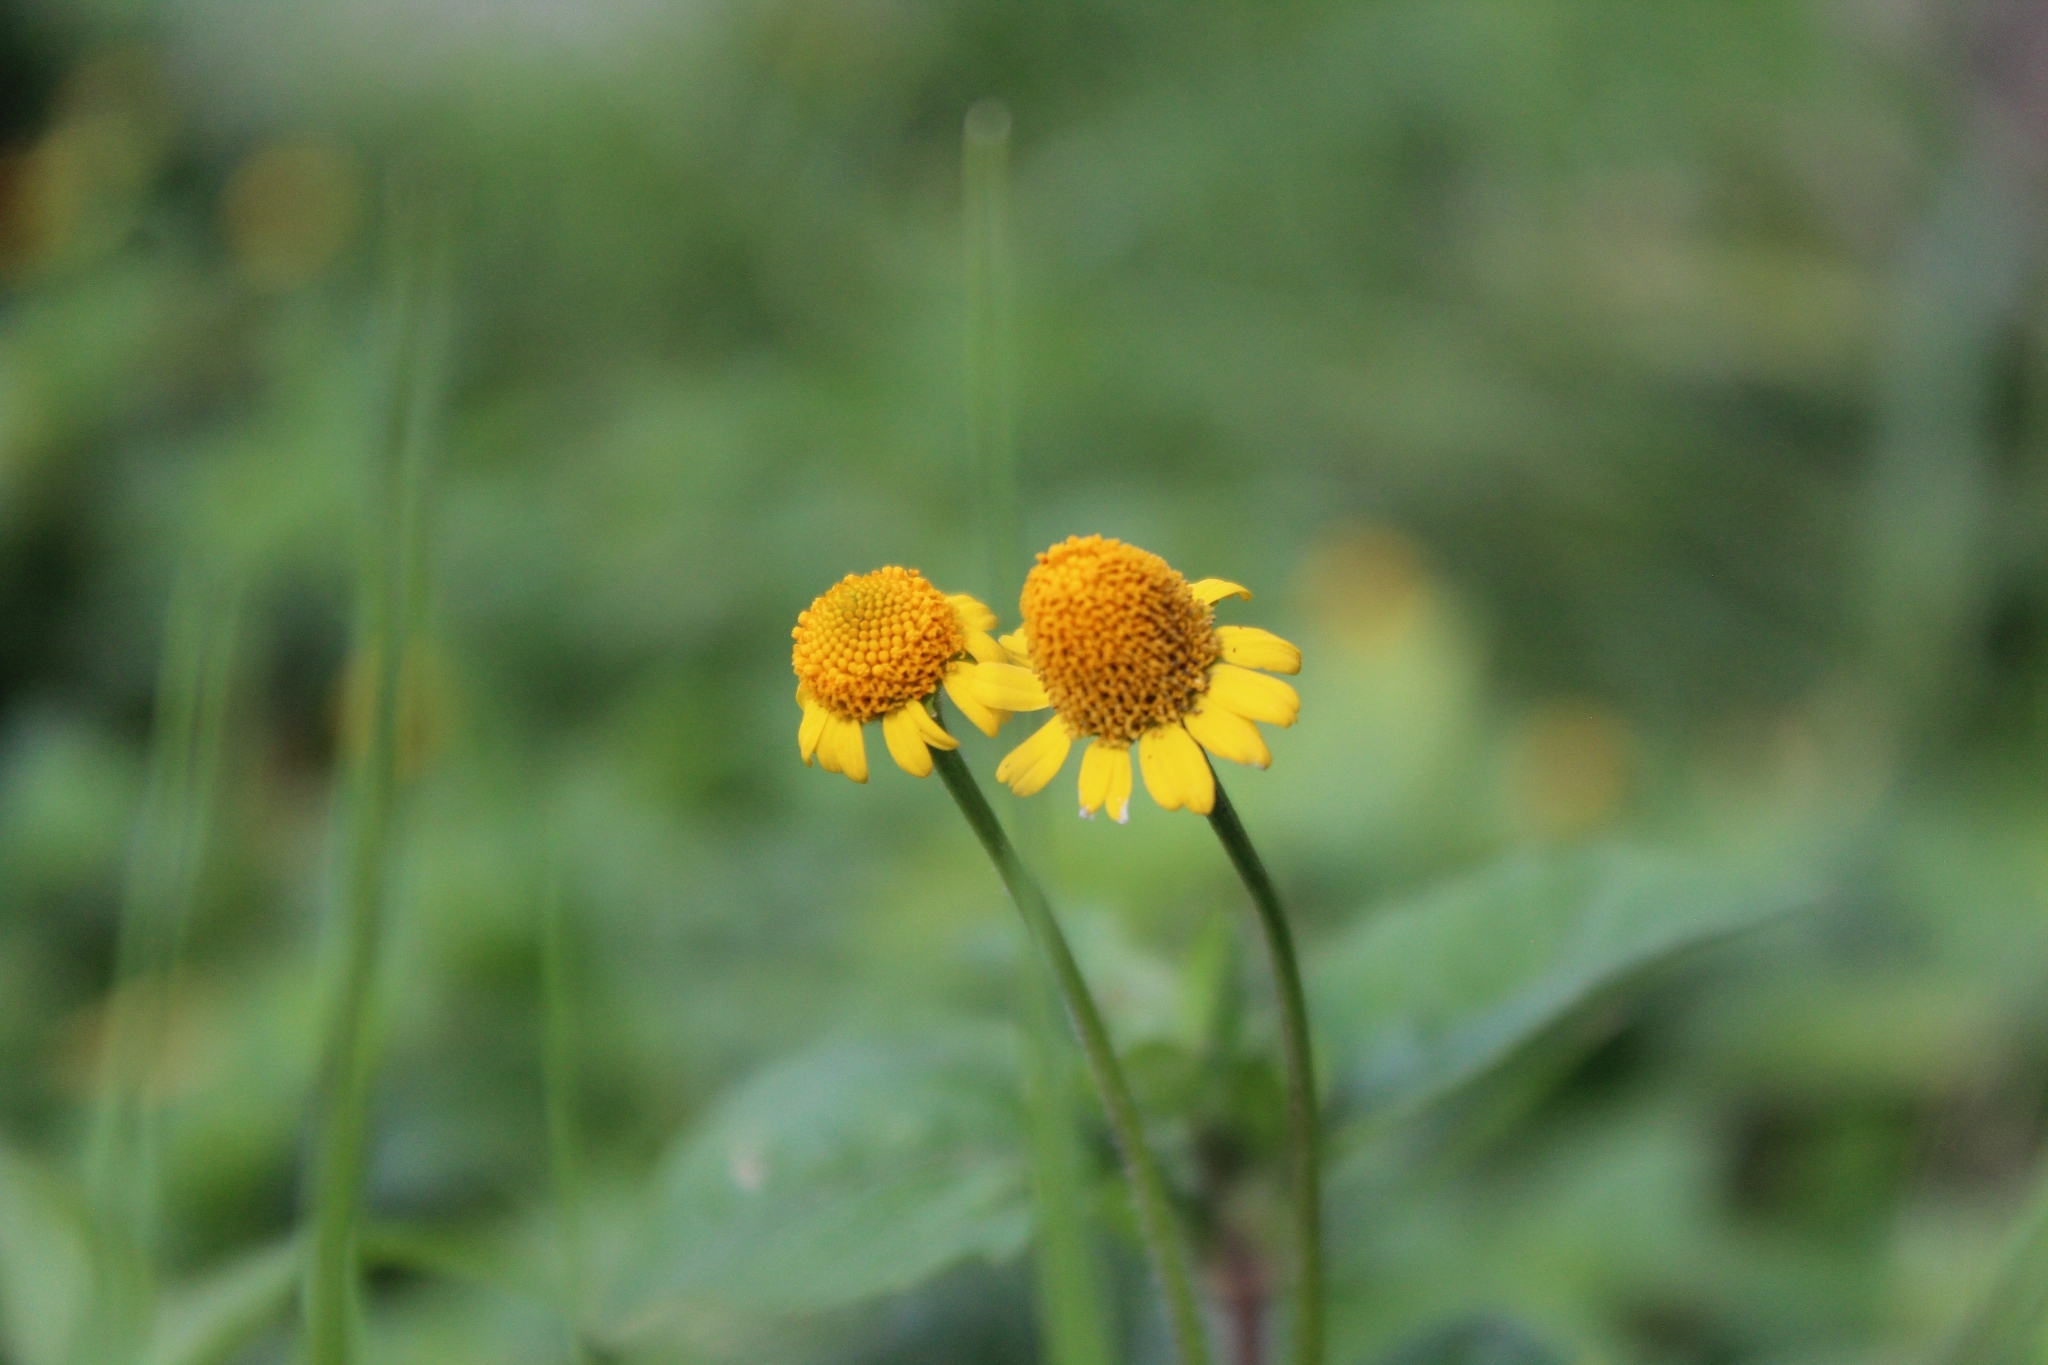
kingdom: Plantae
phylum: Tracheophyta
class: Magnoliopsida
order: Asterales
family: Asteraceae
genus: Acmella
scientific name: Acmella repens
